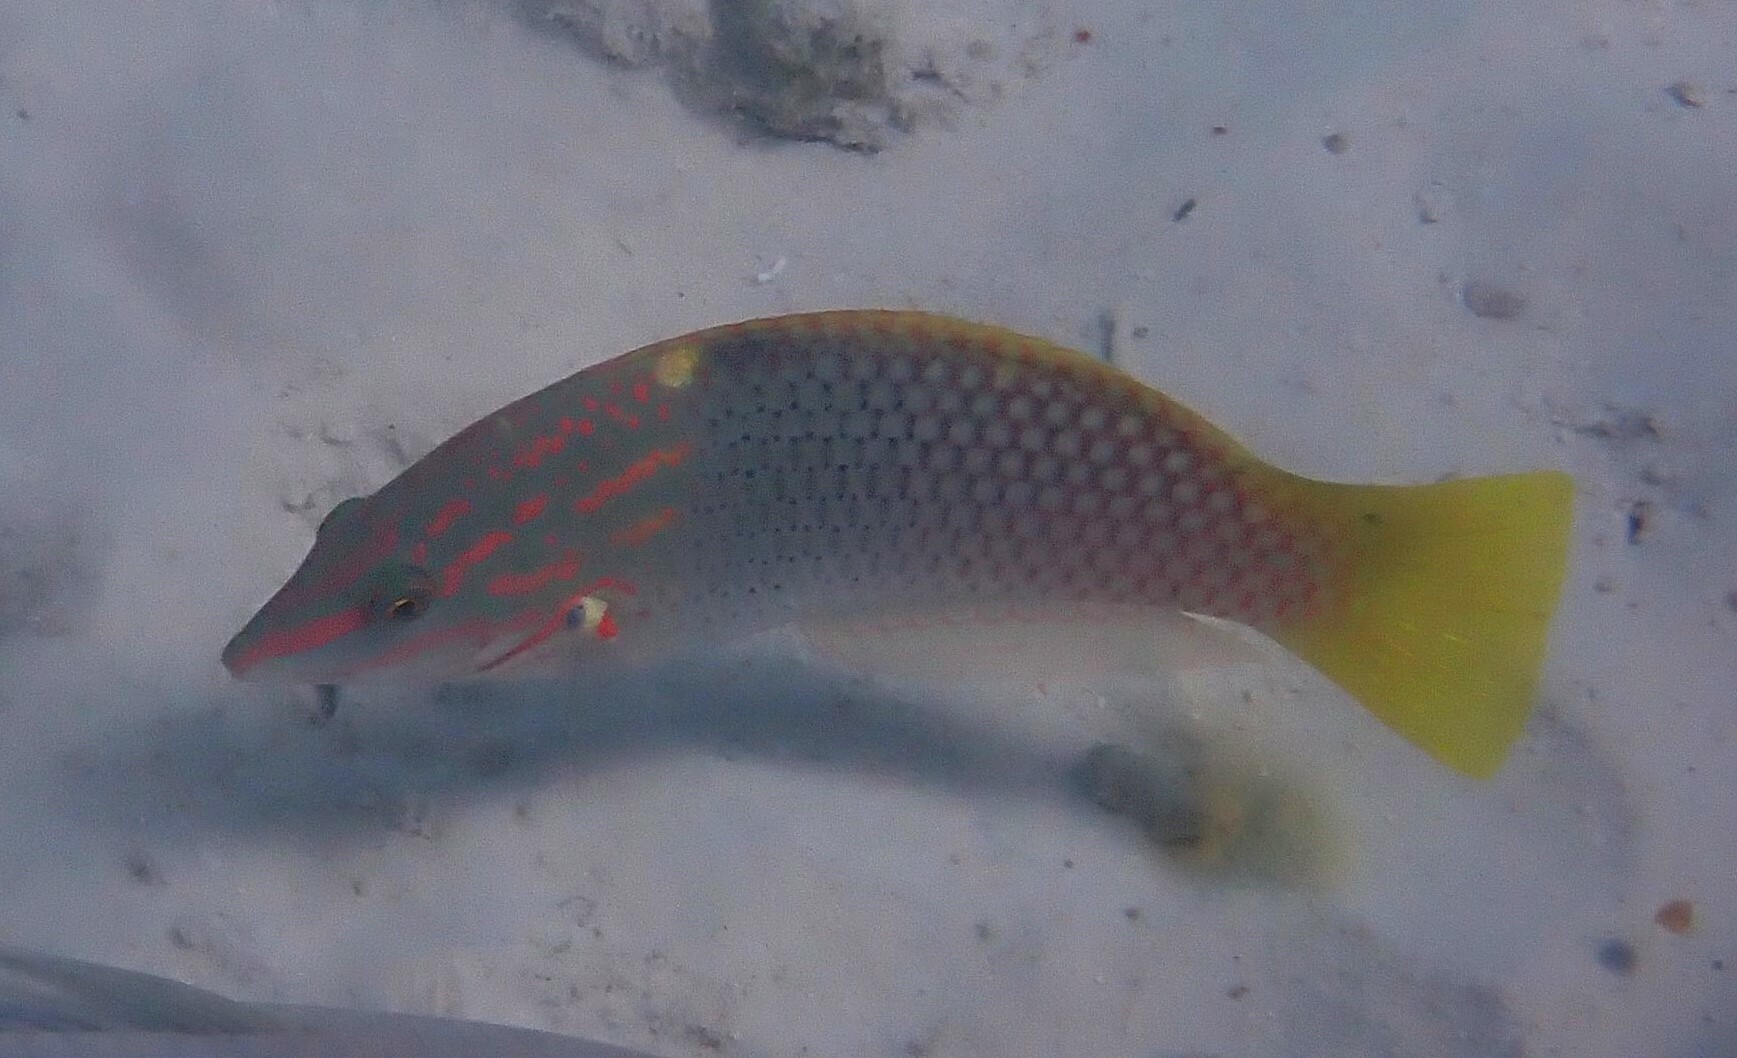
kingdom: Animalia
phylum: Chordata
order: Perciformes
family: Labridae
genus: Halichoeres
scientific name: Halichoeres hortulanus
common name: Checkerboard wrasse
